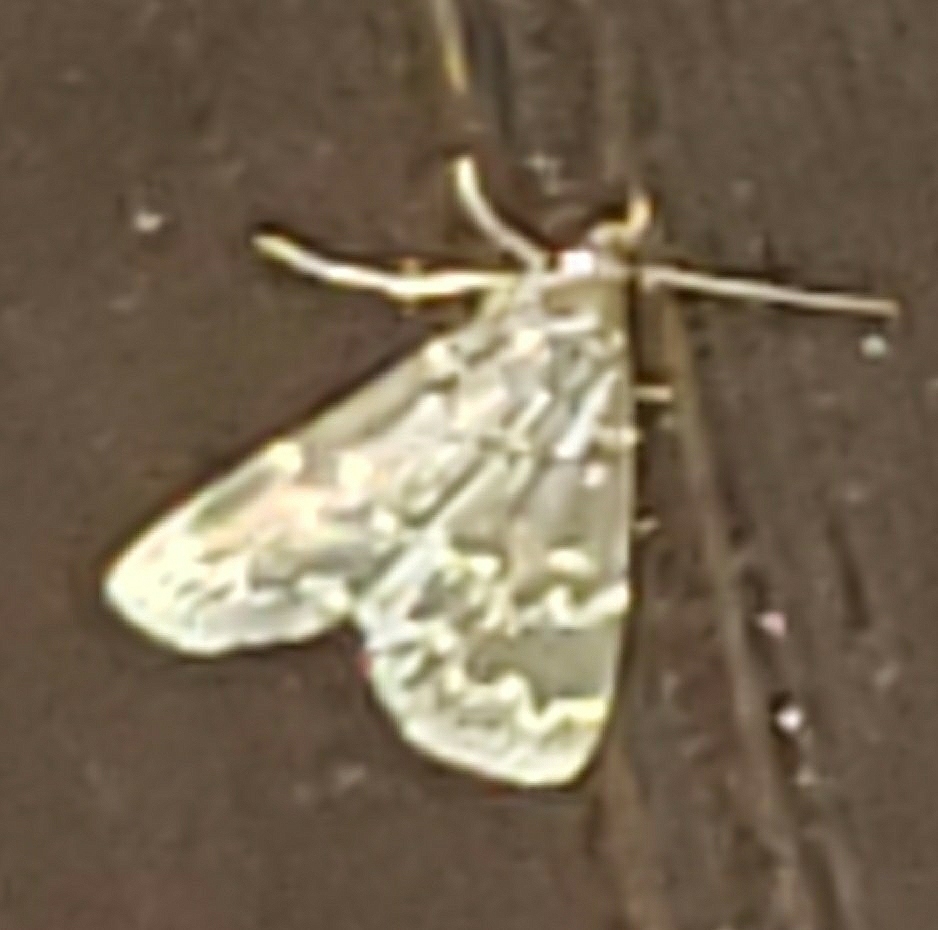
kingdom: Animalia
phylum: Arthropoda
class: Insecta
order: Lepidoptera
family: Erebidae
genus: Idia
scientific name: Idia lubricalis
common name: Twin-striped tabby
